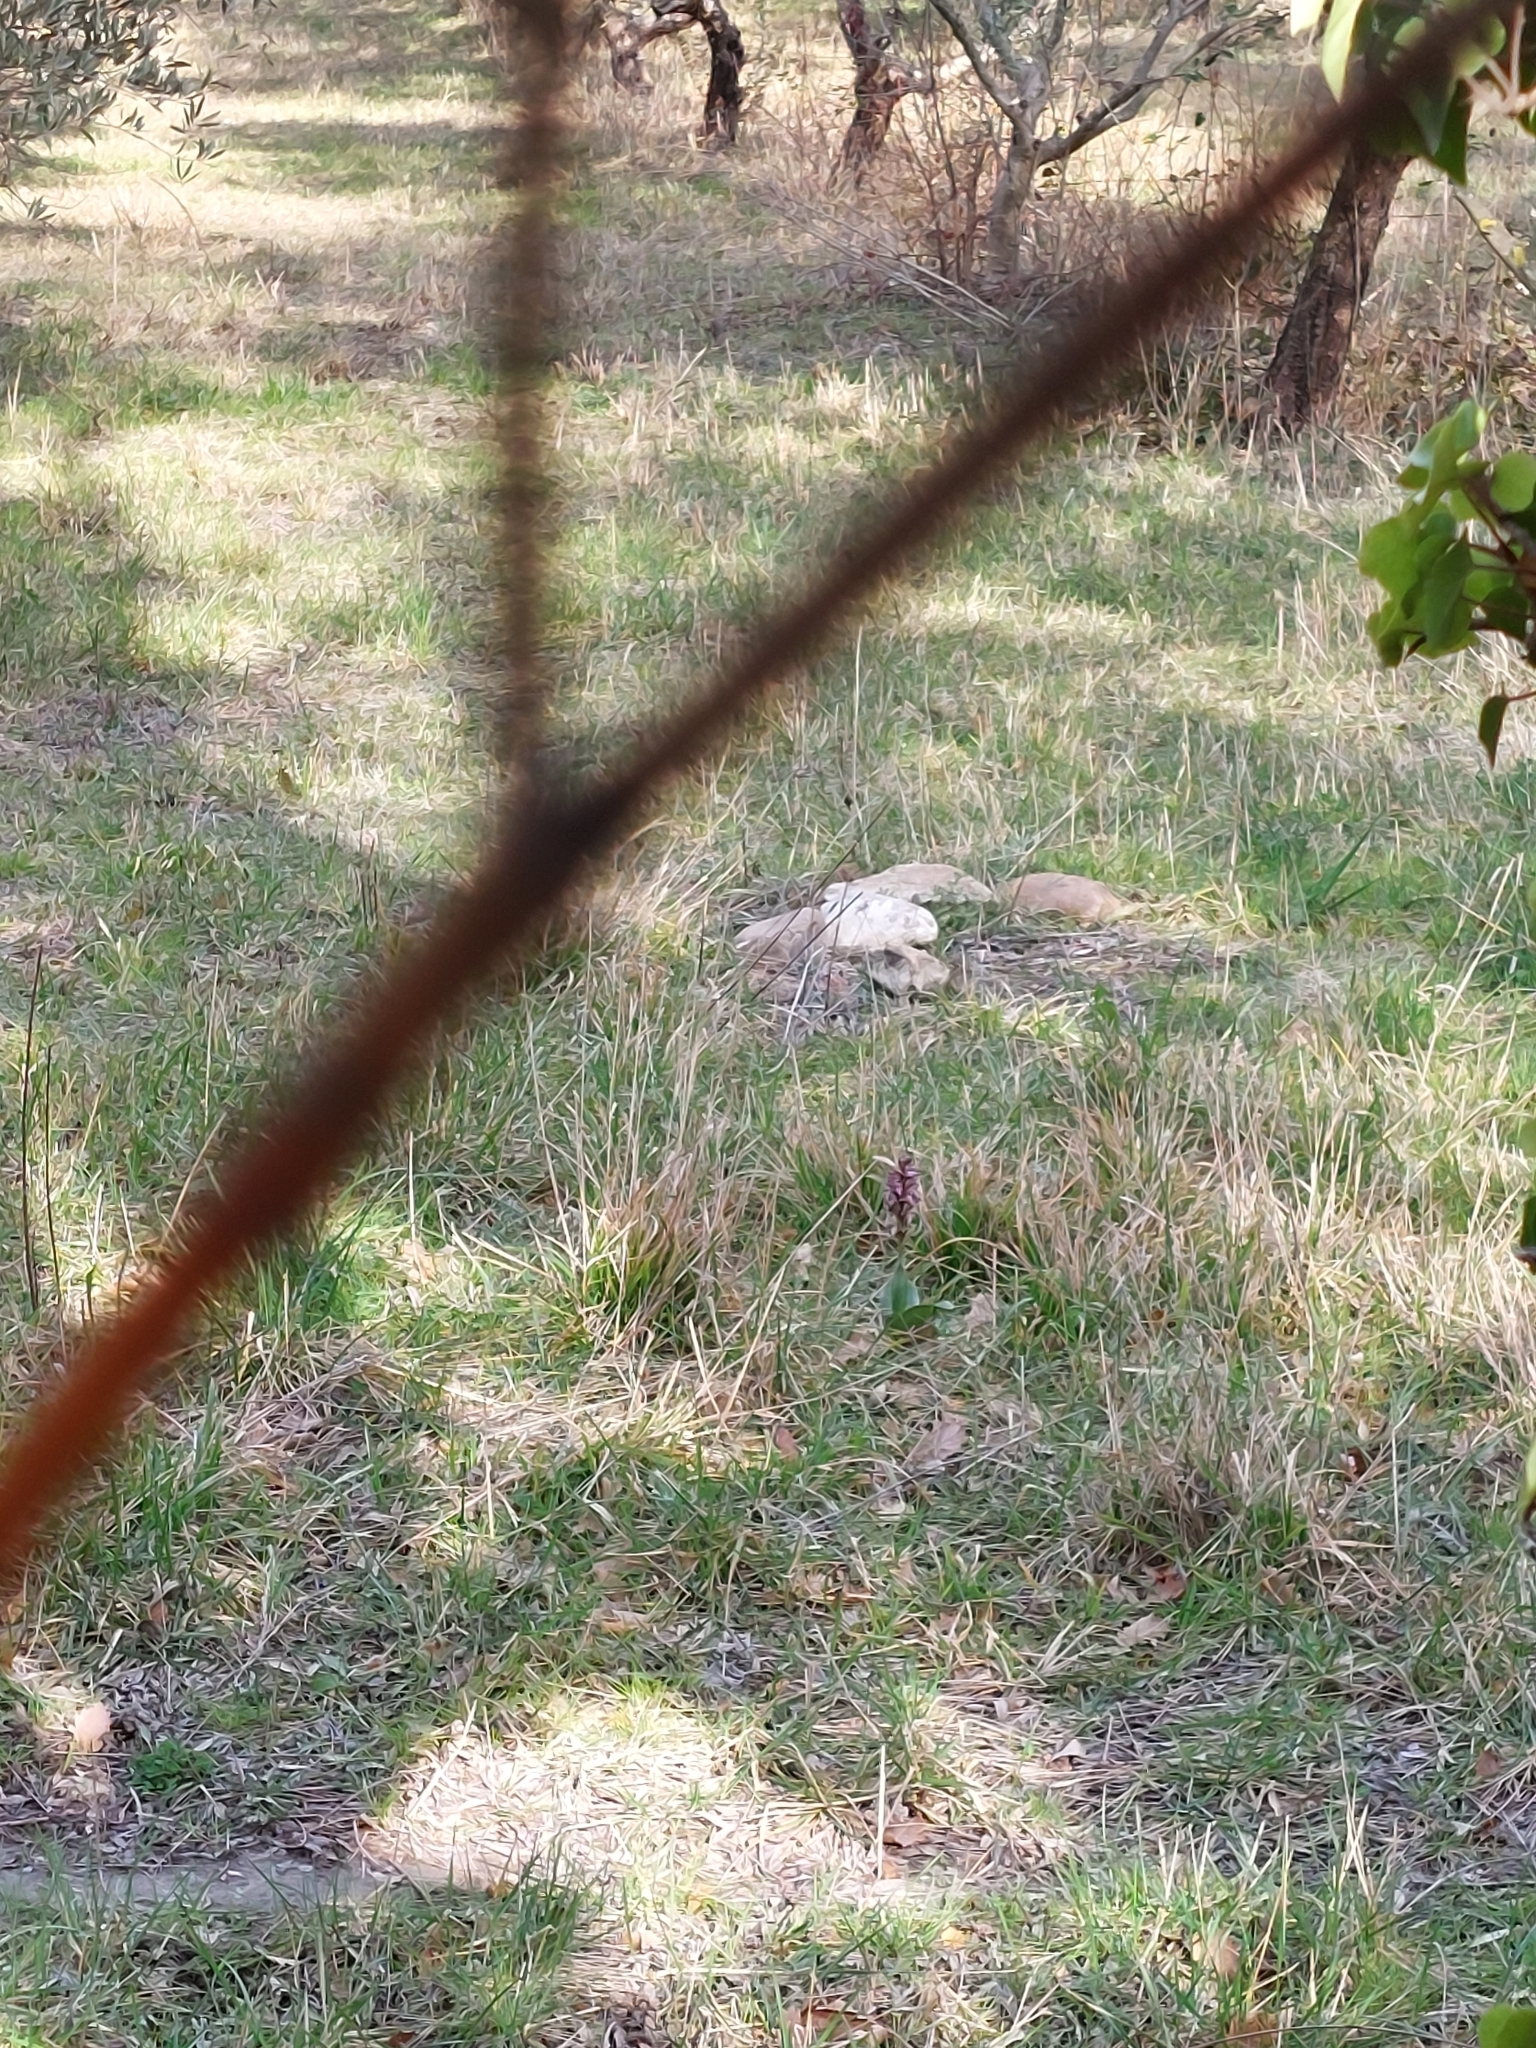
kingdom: Plantae
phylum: Tracheophyta
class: Liliopsida
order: Asparagales
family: Orchidaceae
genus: Himantoglossum
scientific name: Himantoglossum robertianum
